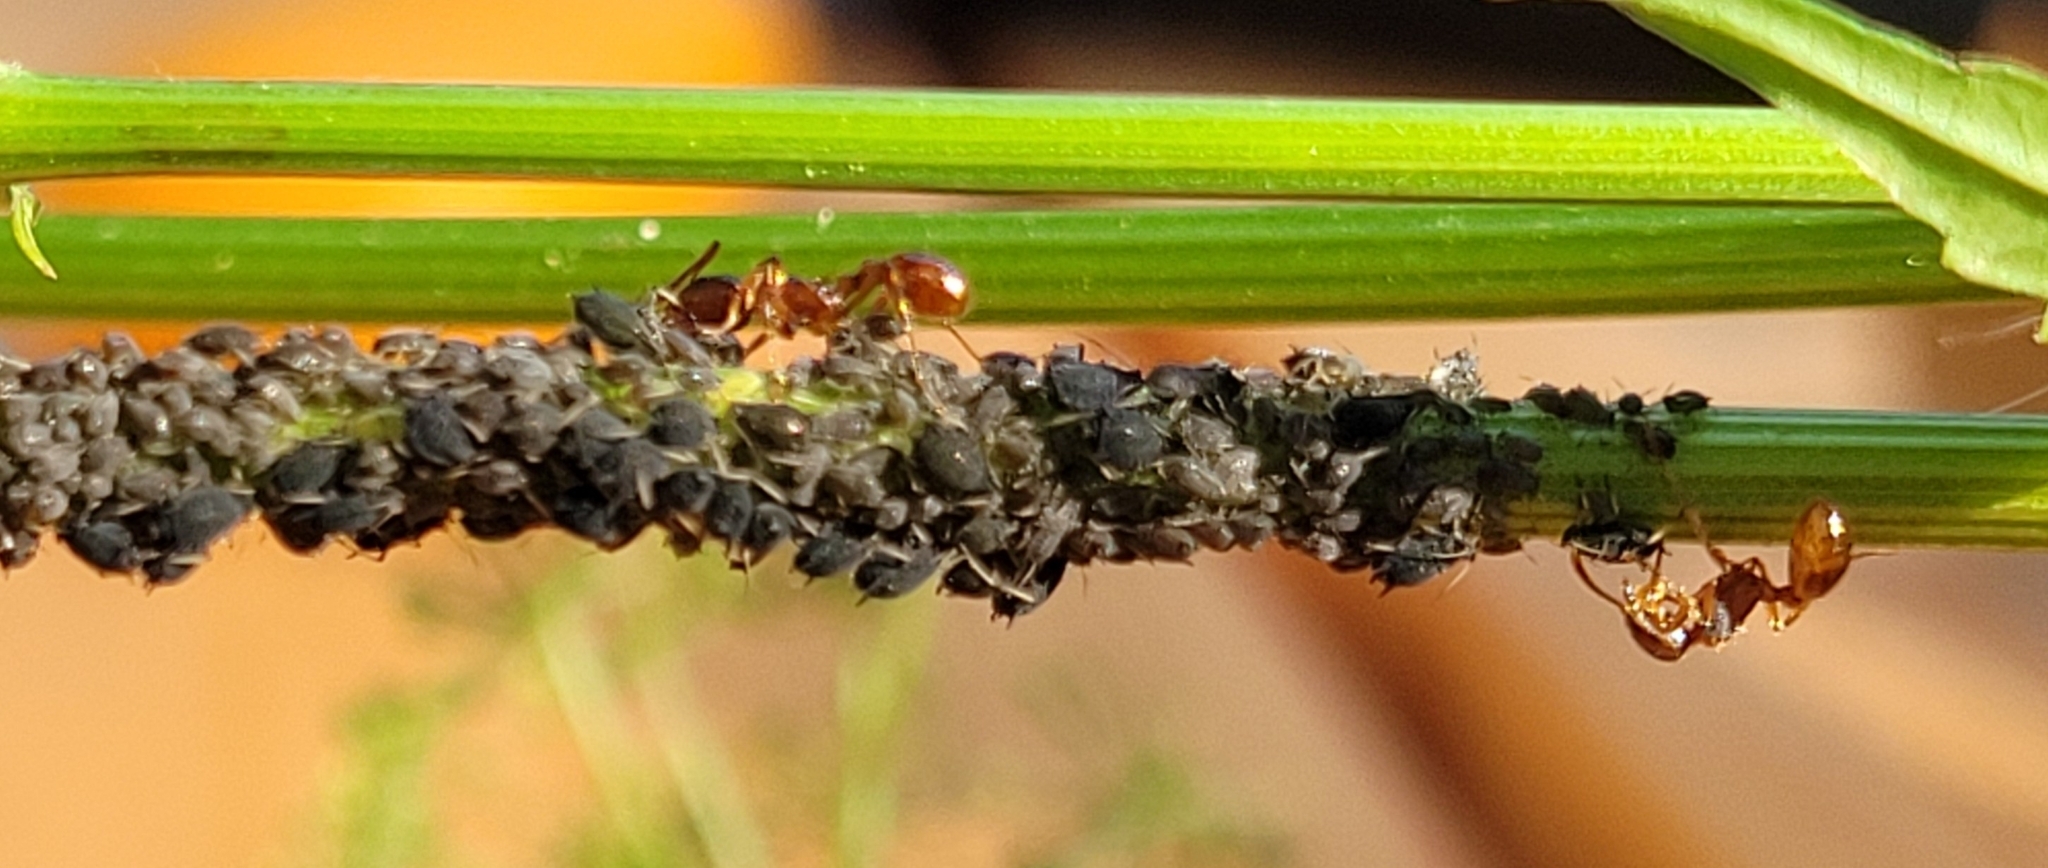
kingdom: Animalia
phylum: Arthropoda
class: Insecta
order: Hymenoptera
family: Formicidae
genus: Myrmica
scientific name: Myrmica rubra
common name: European fire ant
